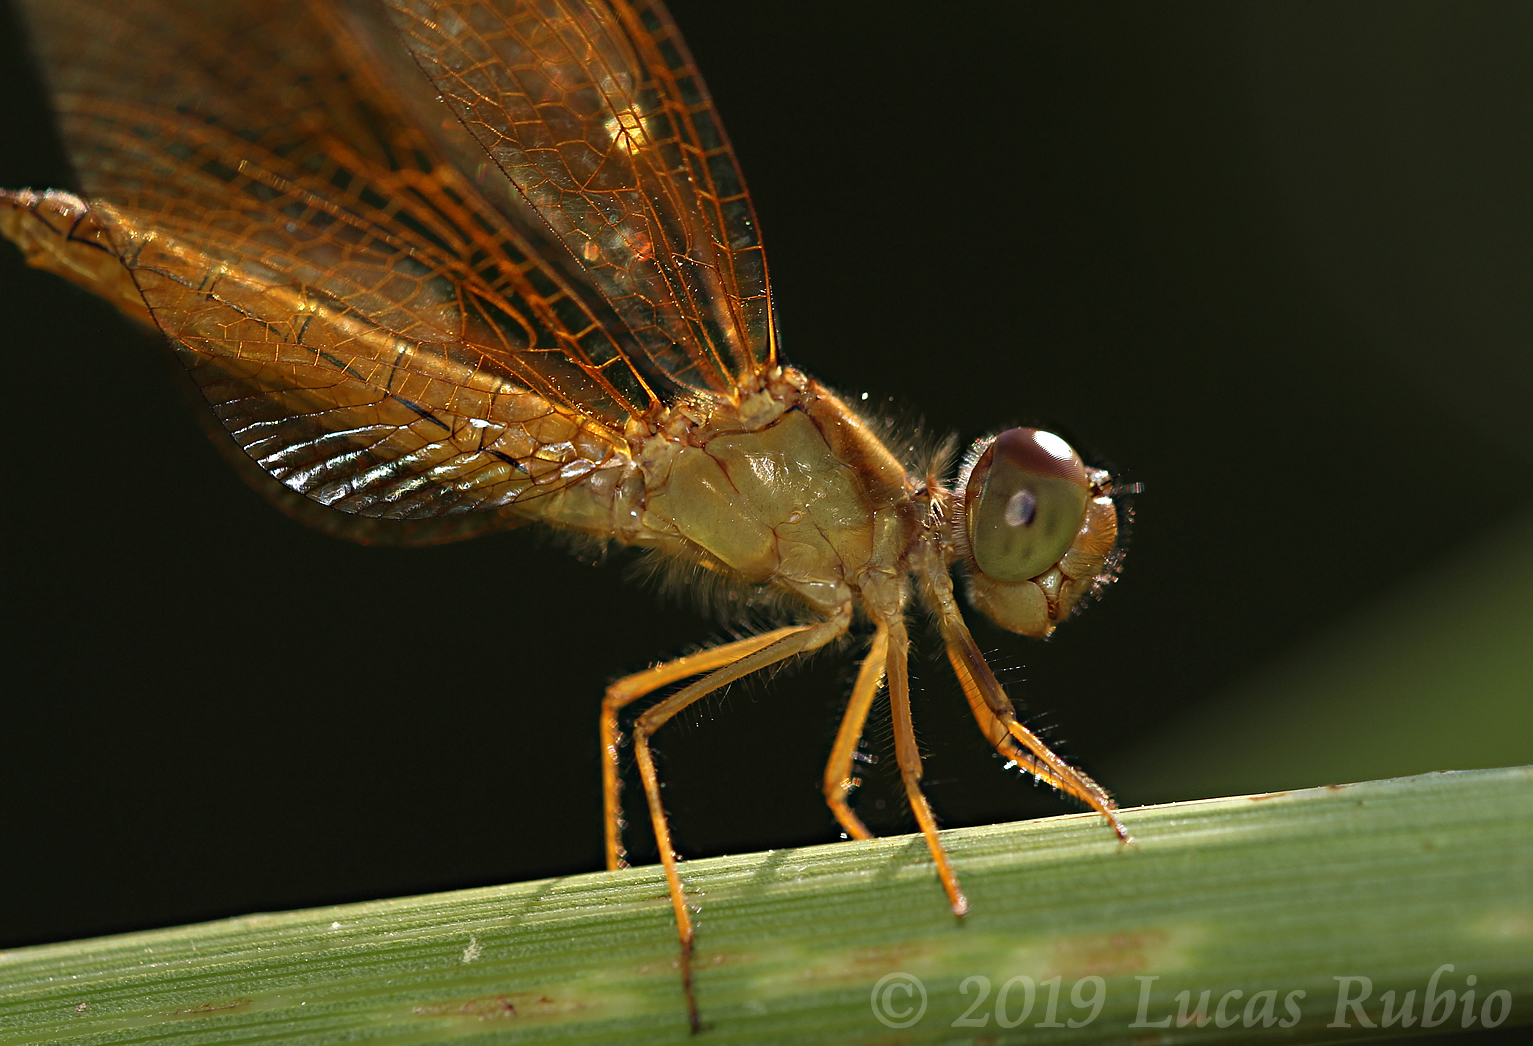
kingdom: Animalia
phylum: Arthropoda
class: Insecta
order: Odonata
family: Libellulidae
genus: Perithemis
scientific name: Perithemis icteroptera
